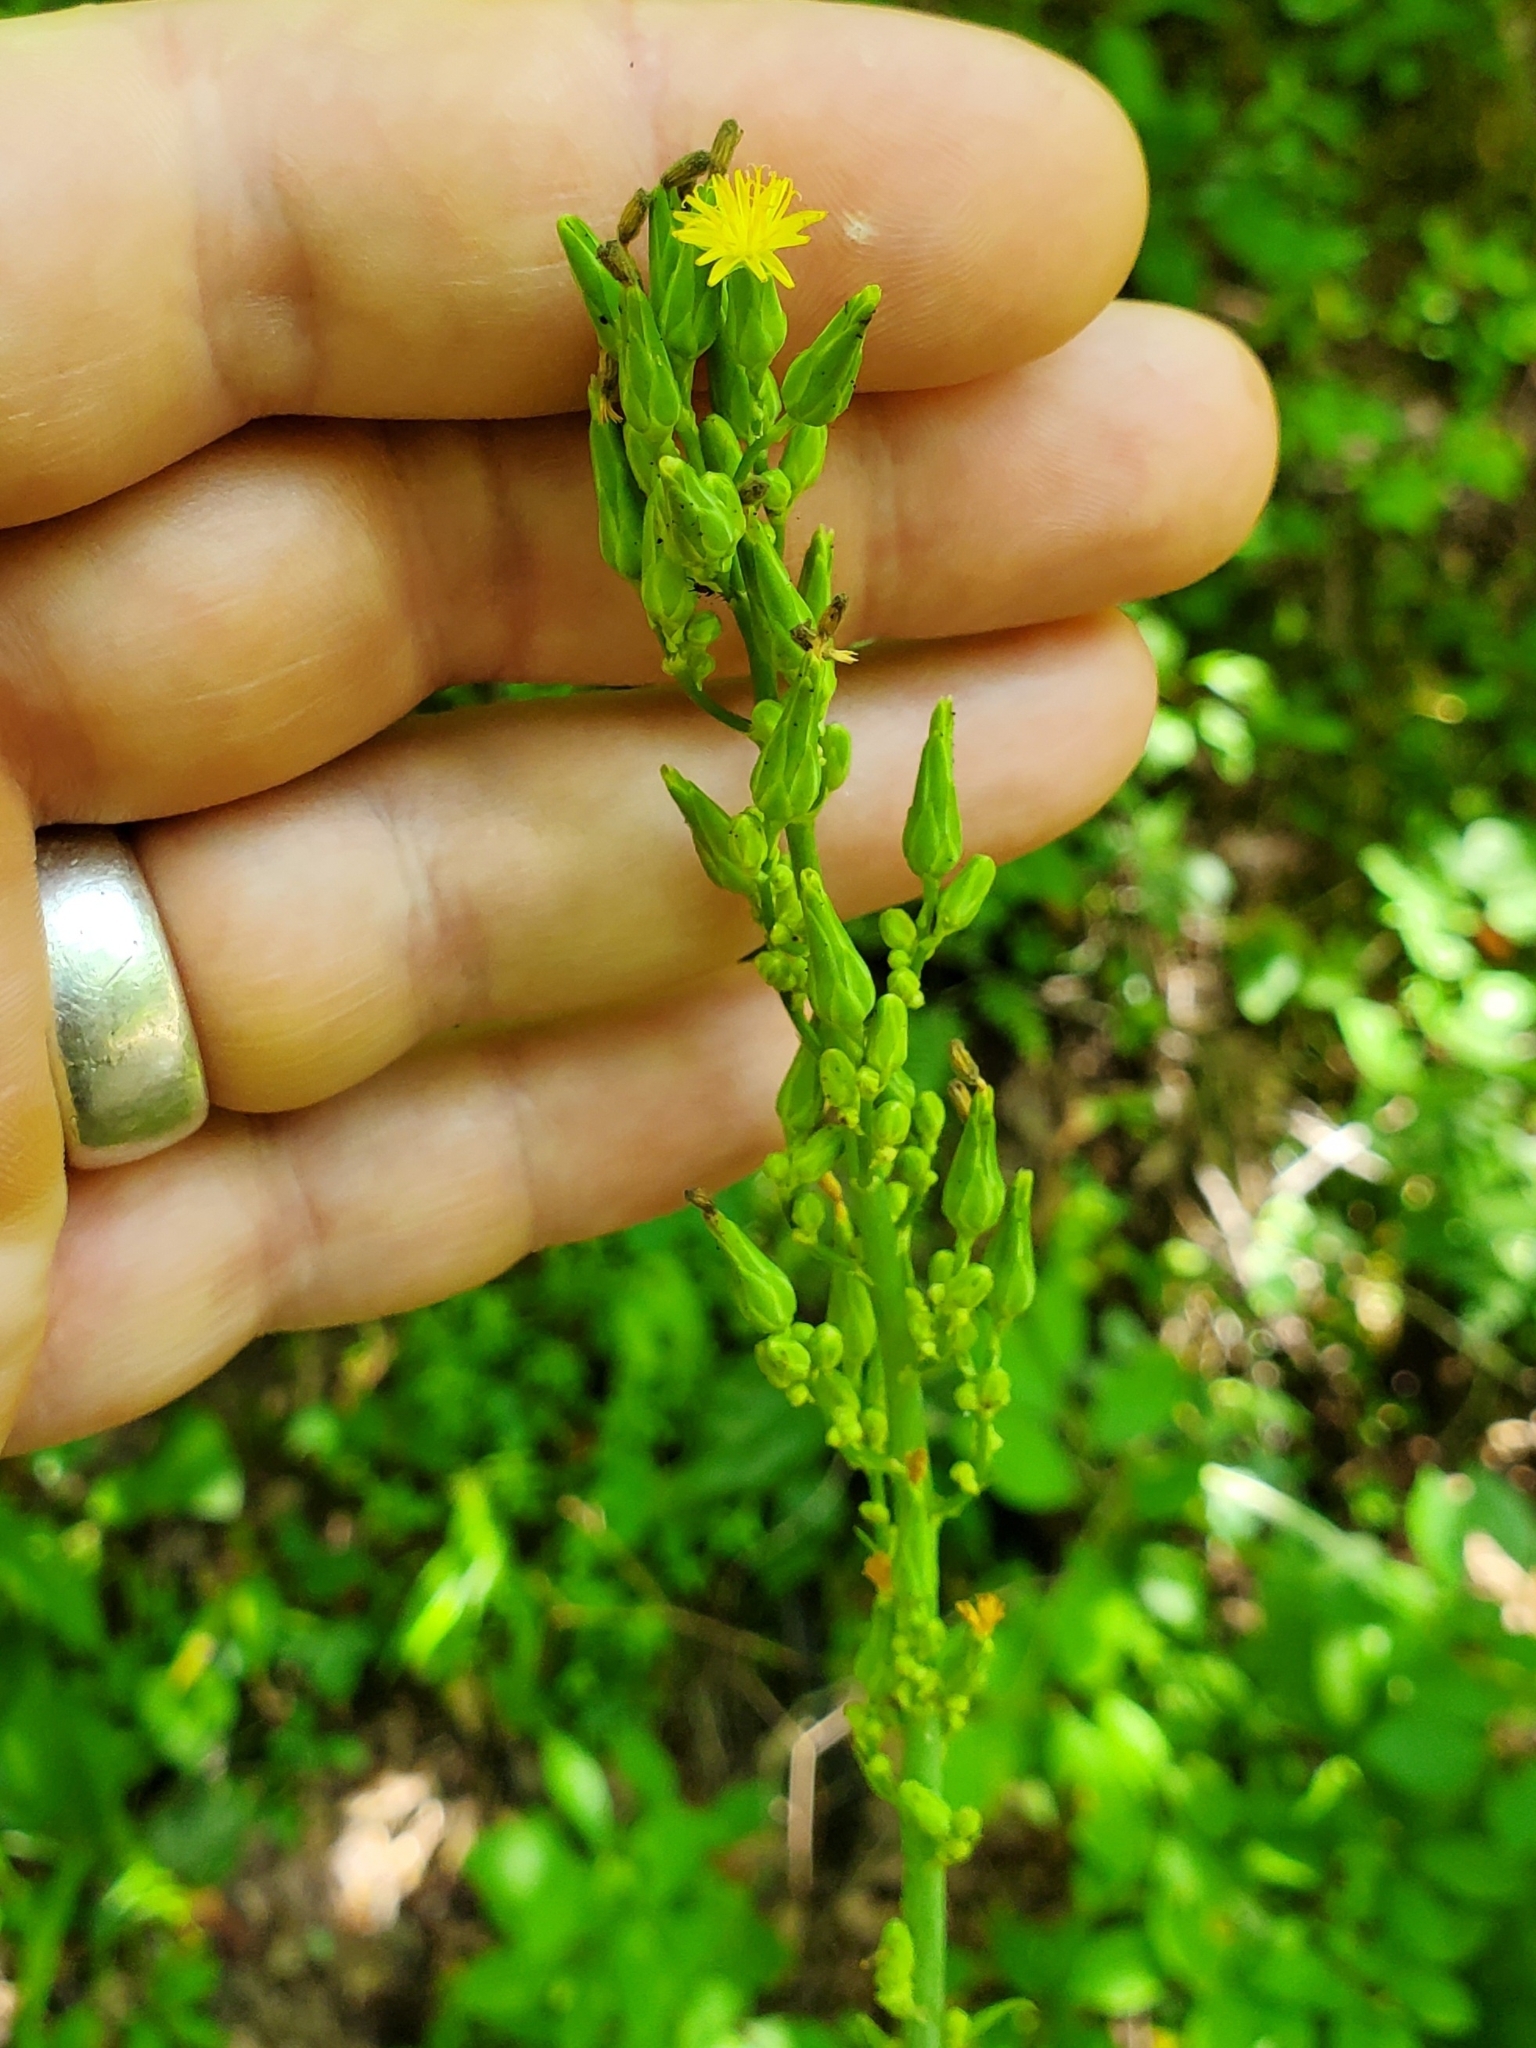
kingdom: Plantae
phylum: Tracheophyta
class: Magnoliopsida
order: Asterales
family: Asteraceae
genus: Lactuca
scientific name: Lactuca canadensis
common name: Canada lettuce
